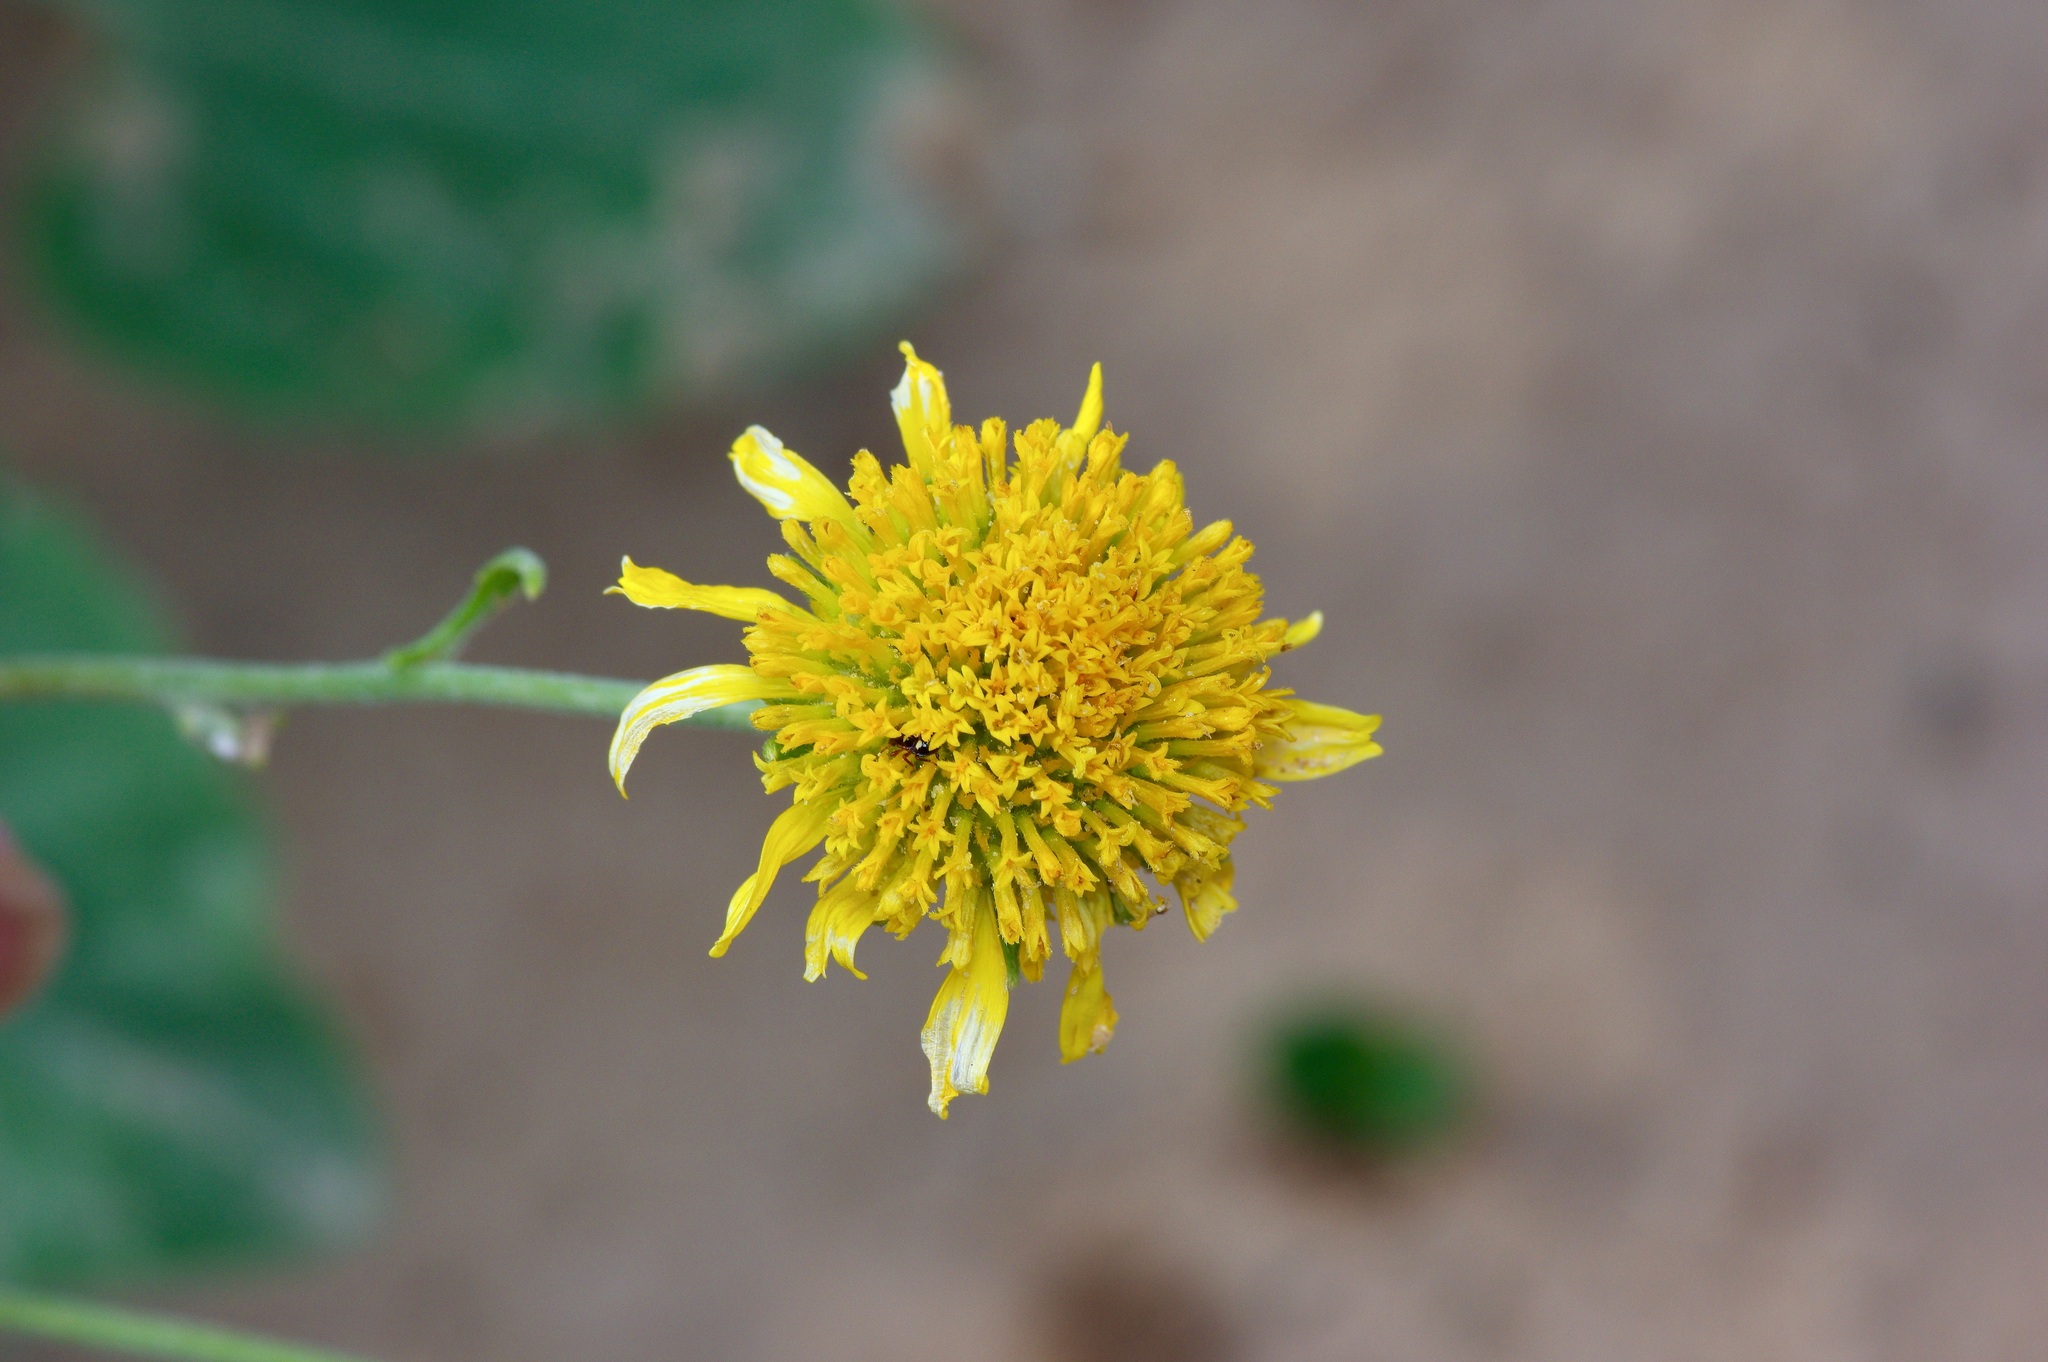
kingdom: Plantae
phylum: Tracheophyta
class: Magnoliopsida
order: Asterales
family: Asteraceae
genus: Verbesina
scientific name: Verbesina encelioides
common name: Golden crownbeard
